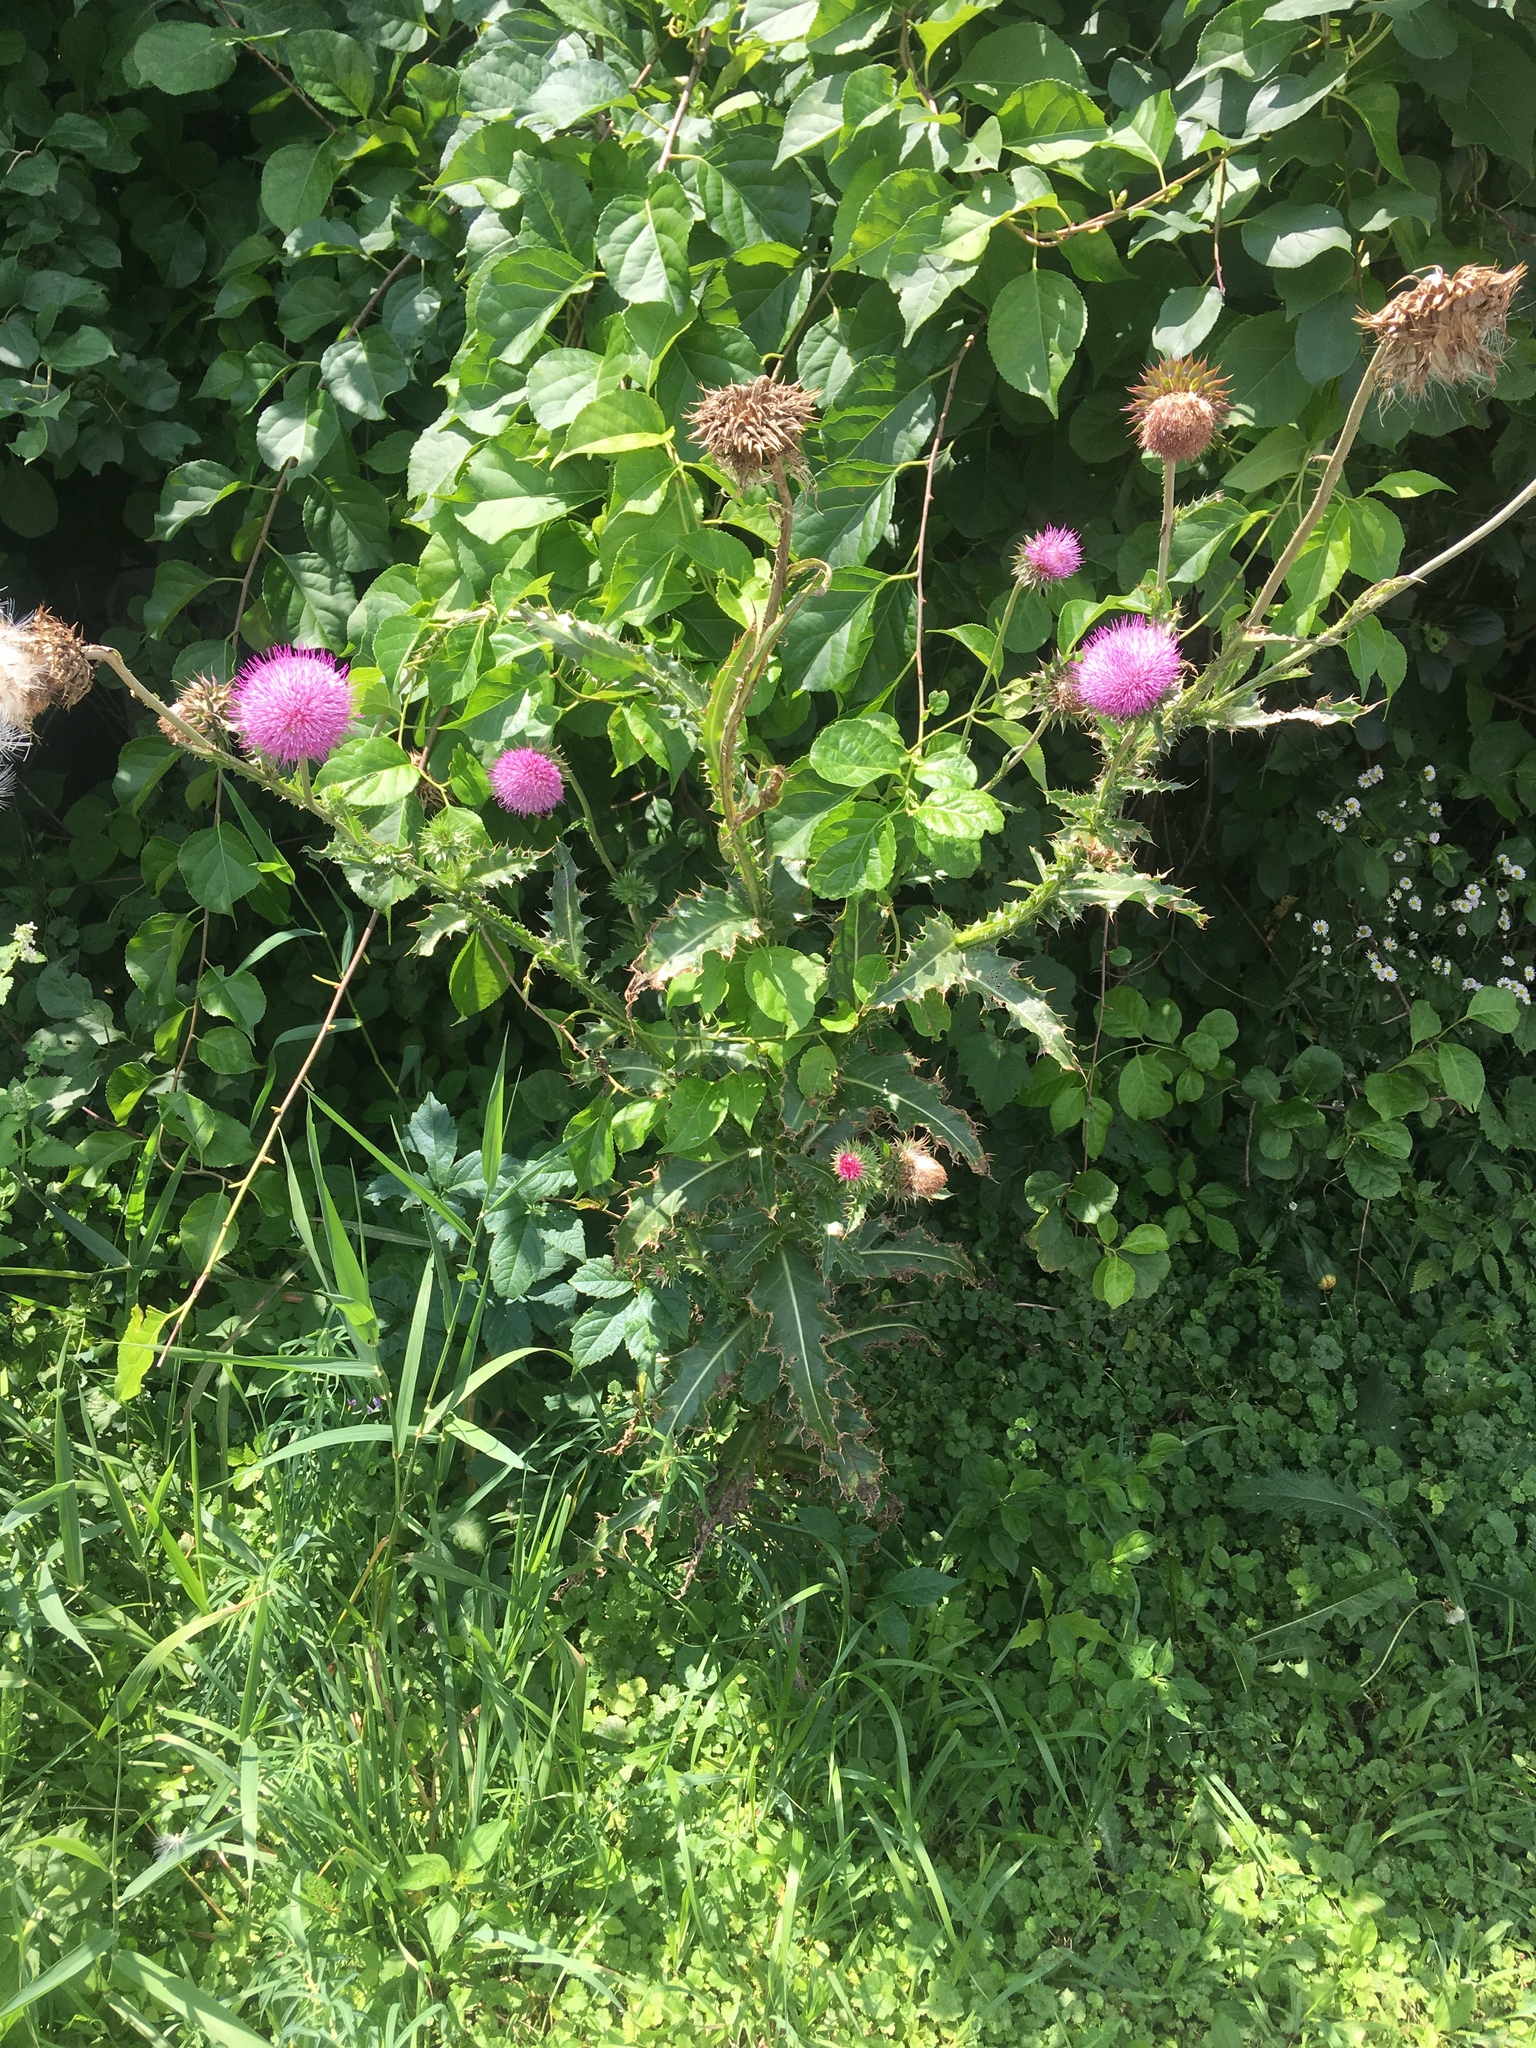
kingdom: Plantae
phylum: Tracheophyta
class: Magnoliopsida
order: Asterales
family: Asteraceae
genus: Carduus
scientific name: Carduus nutans
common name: Musk thistle
